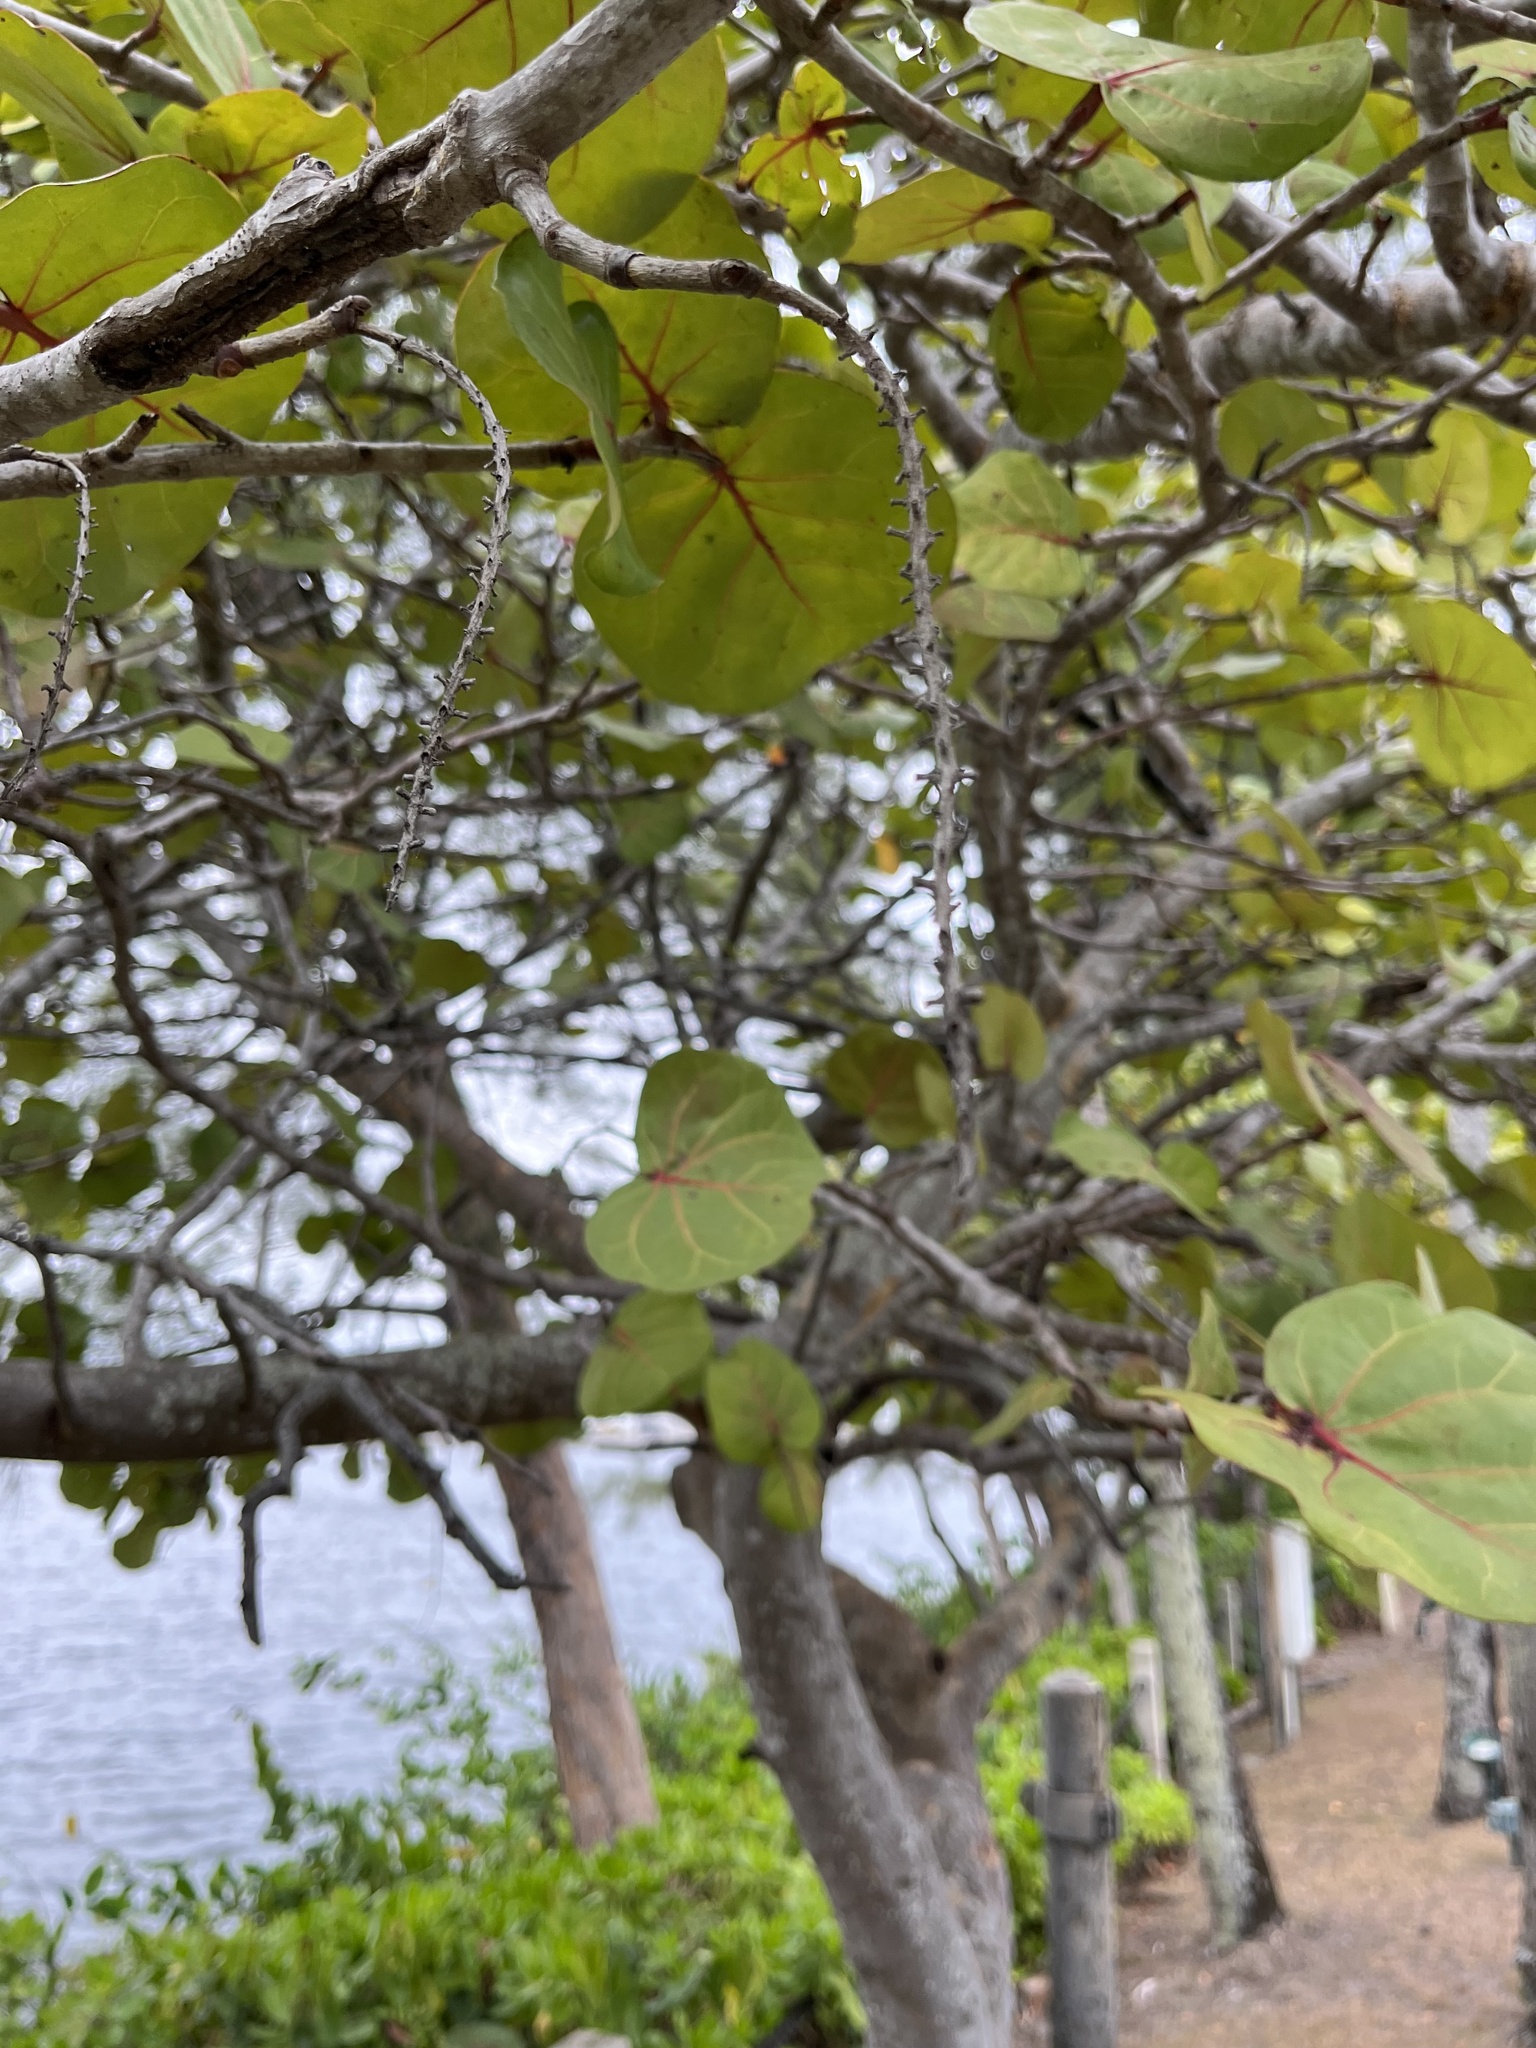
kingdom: Plantae
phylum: Tracheophyta
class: Magnoliopsida
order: Caryophyllales
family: Polygonaceae
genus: Coccoloba
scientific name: Coccoloba uvifera
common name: Seagrape
